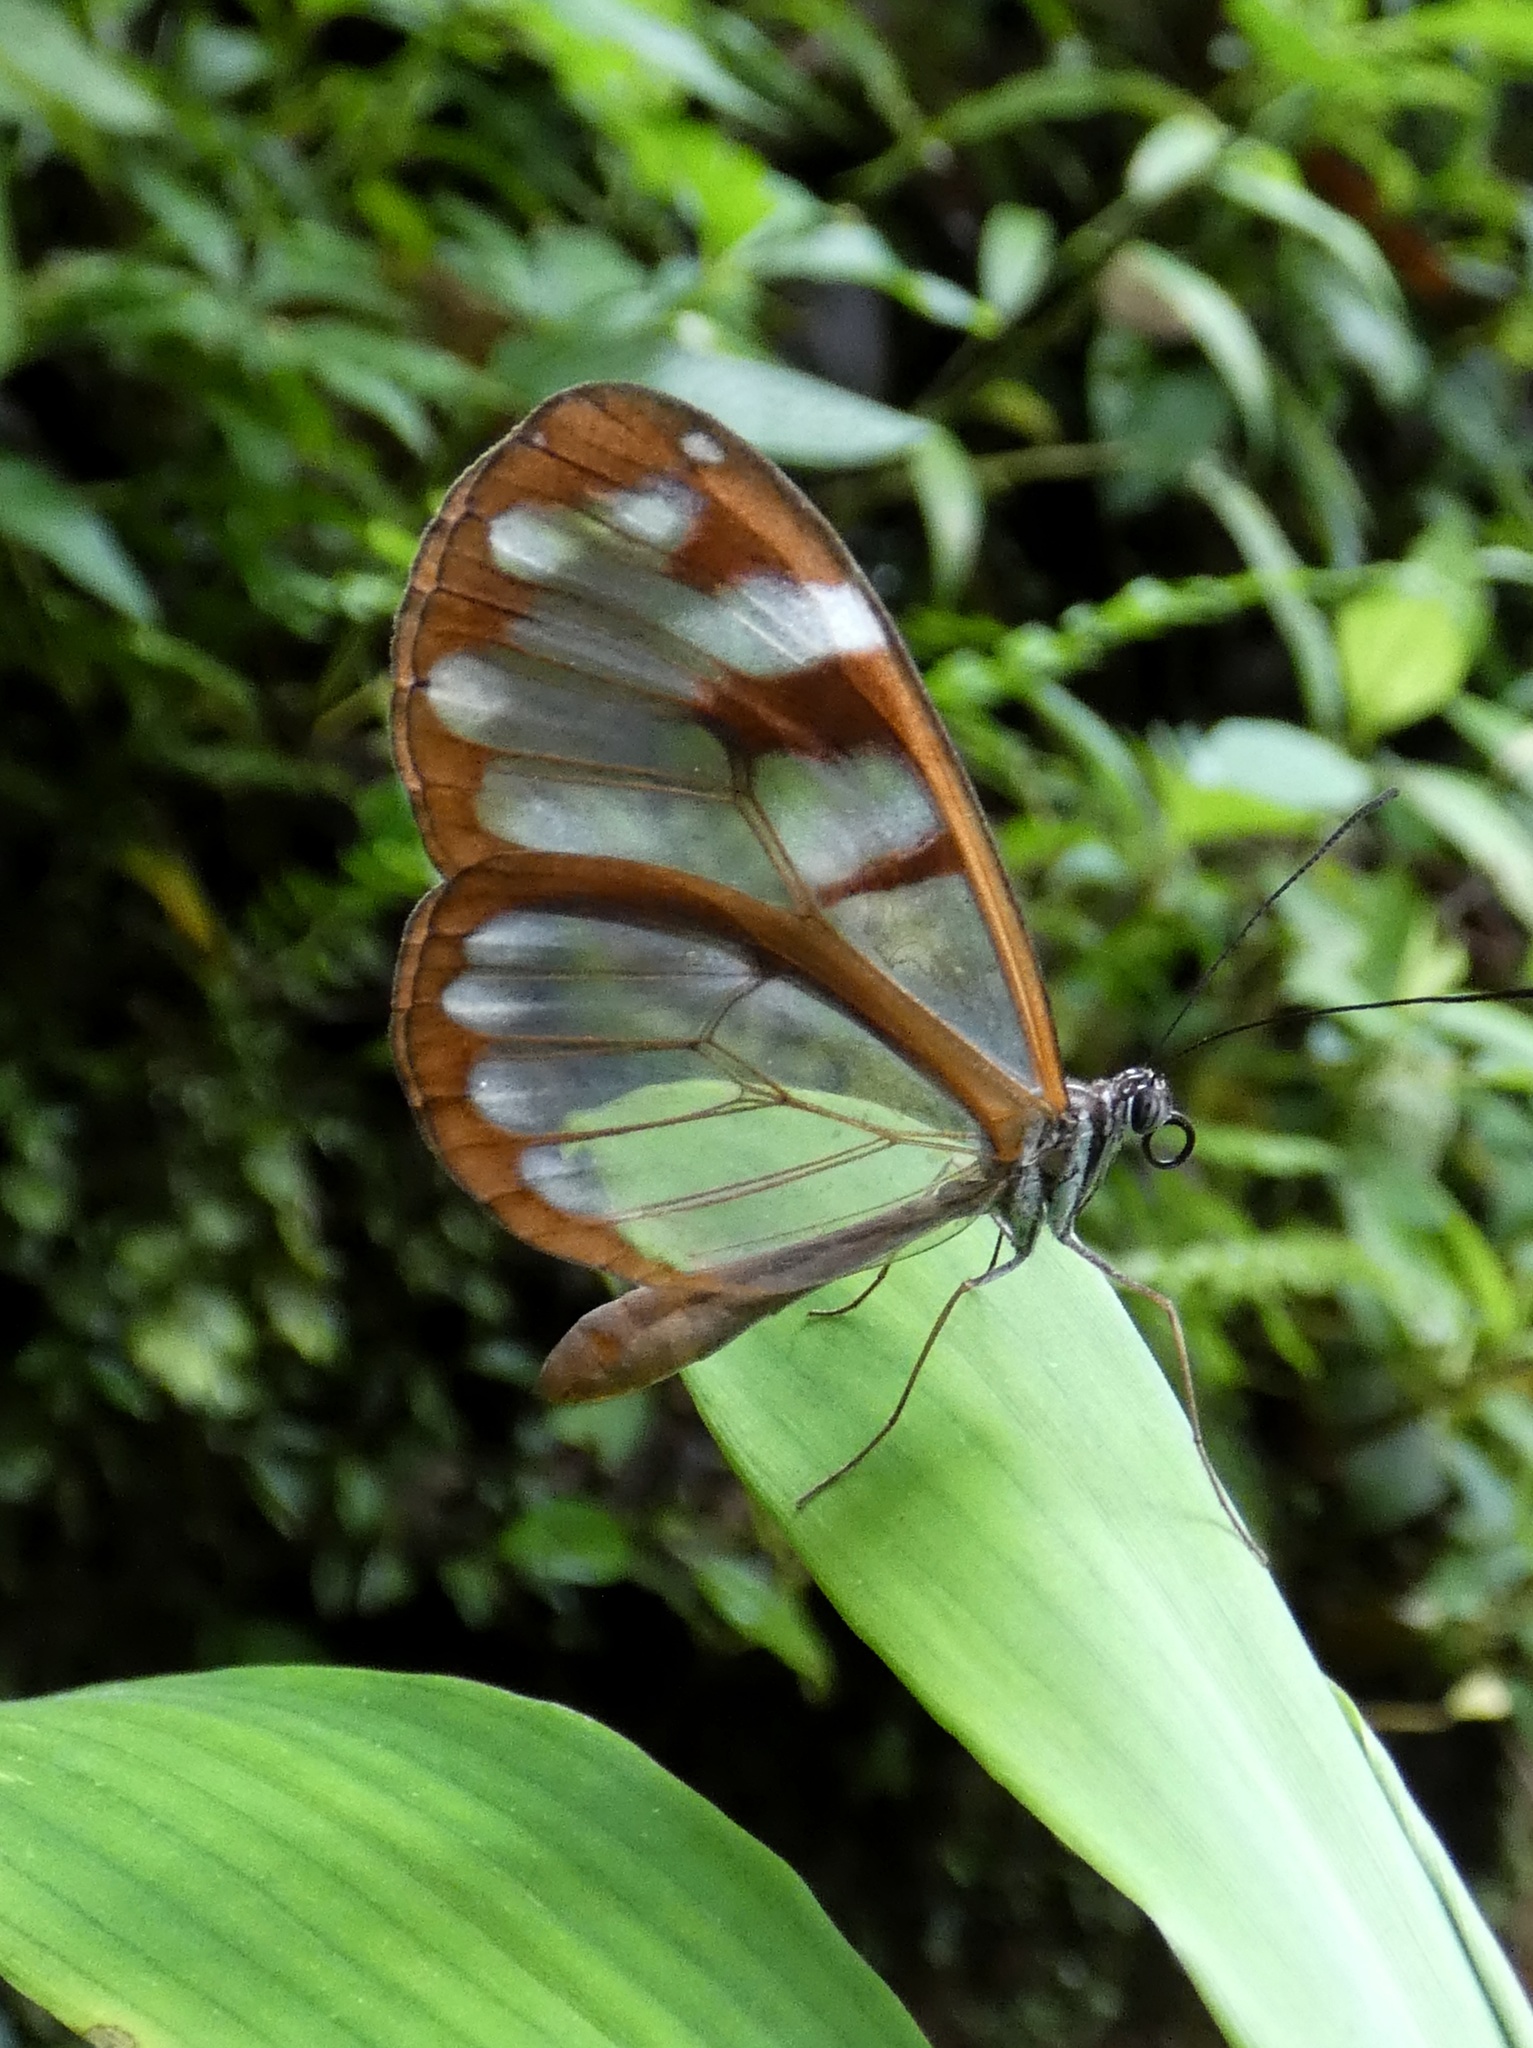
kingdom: Animalia
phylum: Arthropoda
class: Insecta
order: Lepidoptera
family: Nymphalidae
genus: Oleria
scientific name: Oleria vicina
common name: Vicina clearwing
